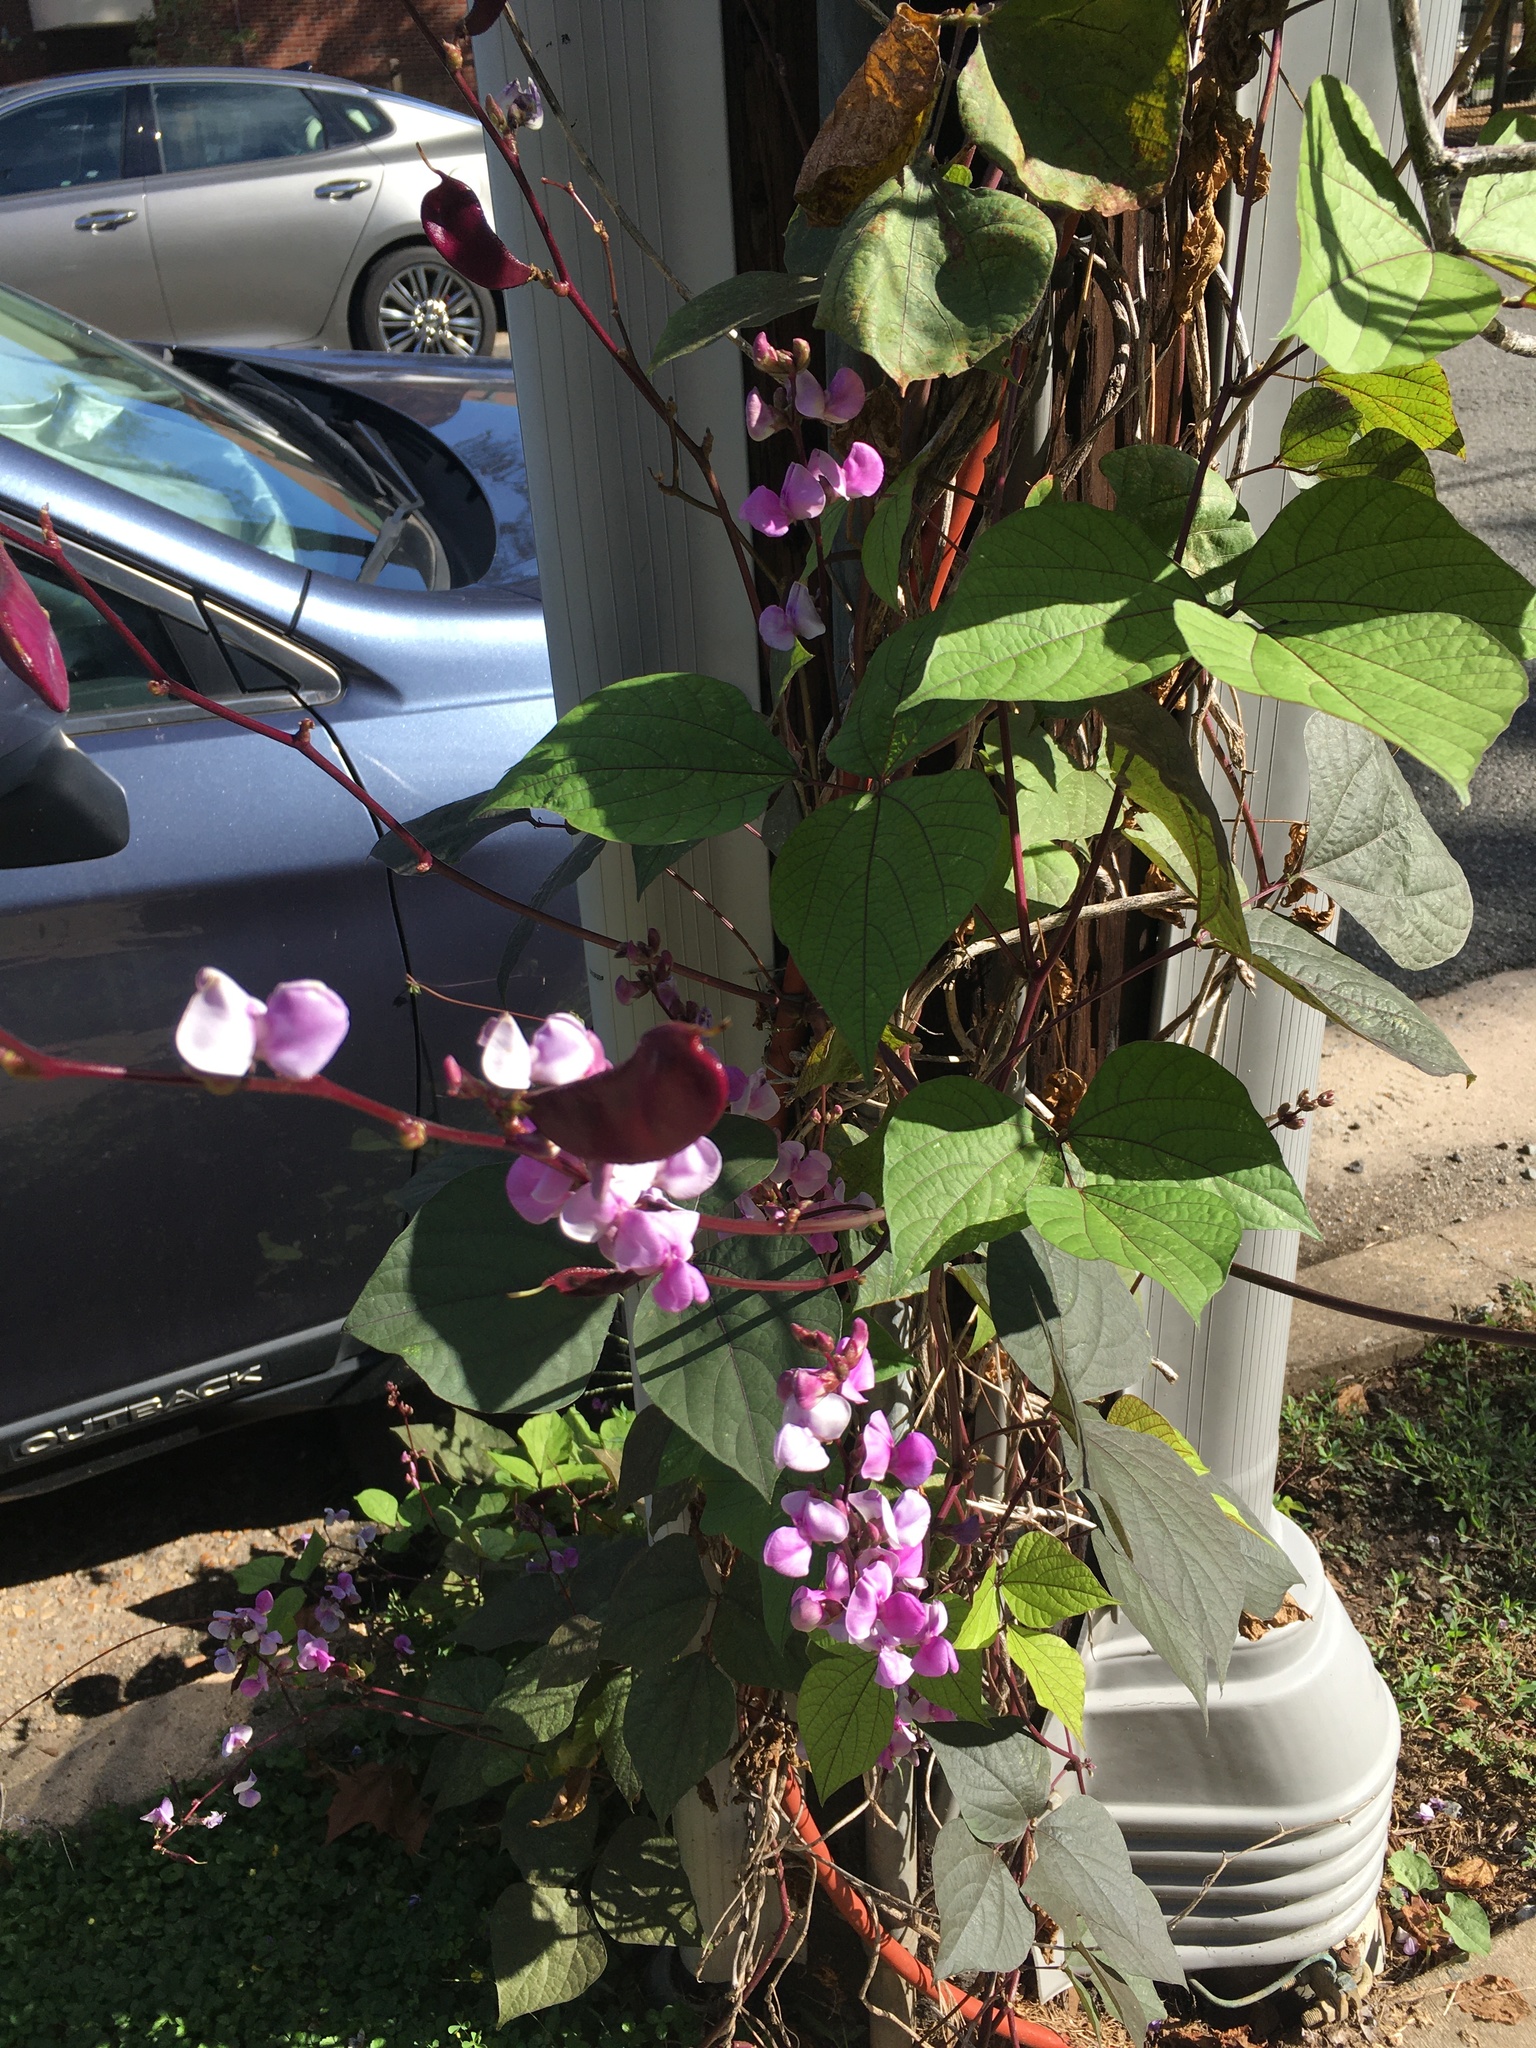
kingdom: Plantae
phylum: Tracheophyta
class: Magnoliopsida
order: Fabales
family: Fabaceae
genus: Lablab
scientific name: Lablab purpureus
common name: Lablab-bean
